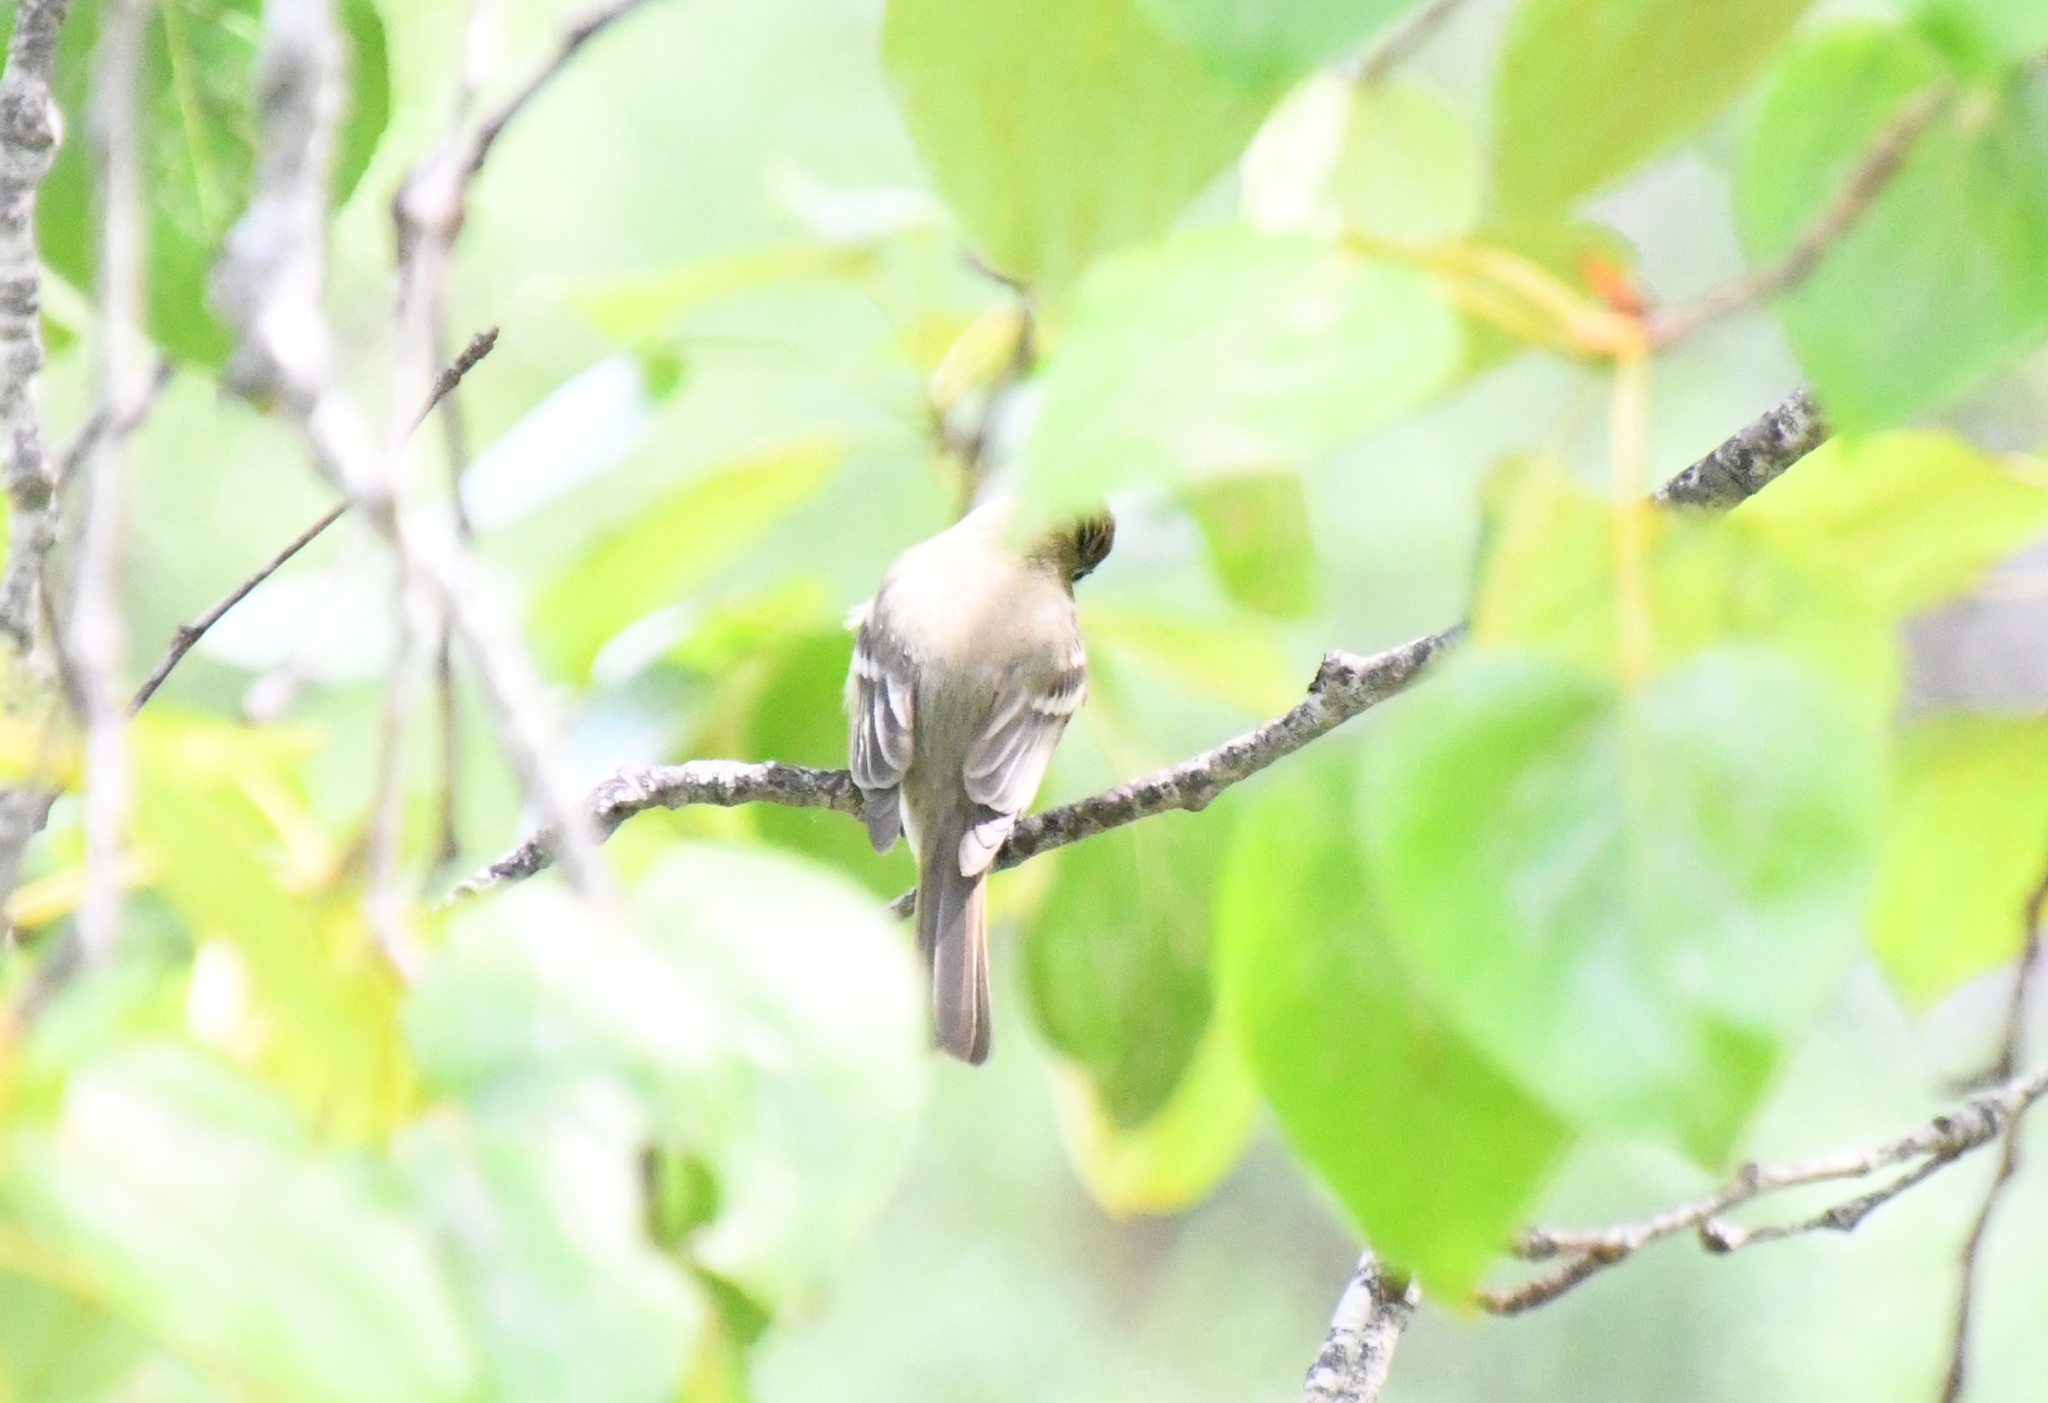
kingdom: Animalia
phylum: Chordata
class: Aves
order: Passeriformes
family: Tyrannidae
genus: Empidonax
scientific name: Empidonax difficilis
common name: Pacific-slope flycatcher
